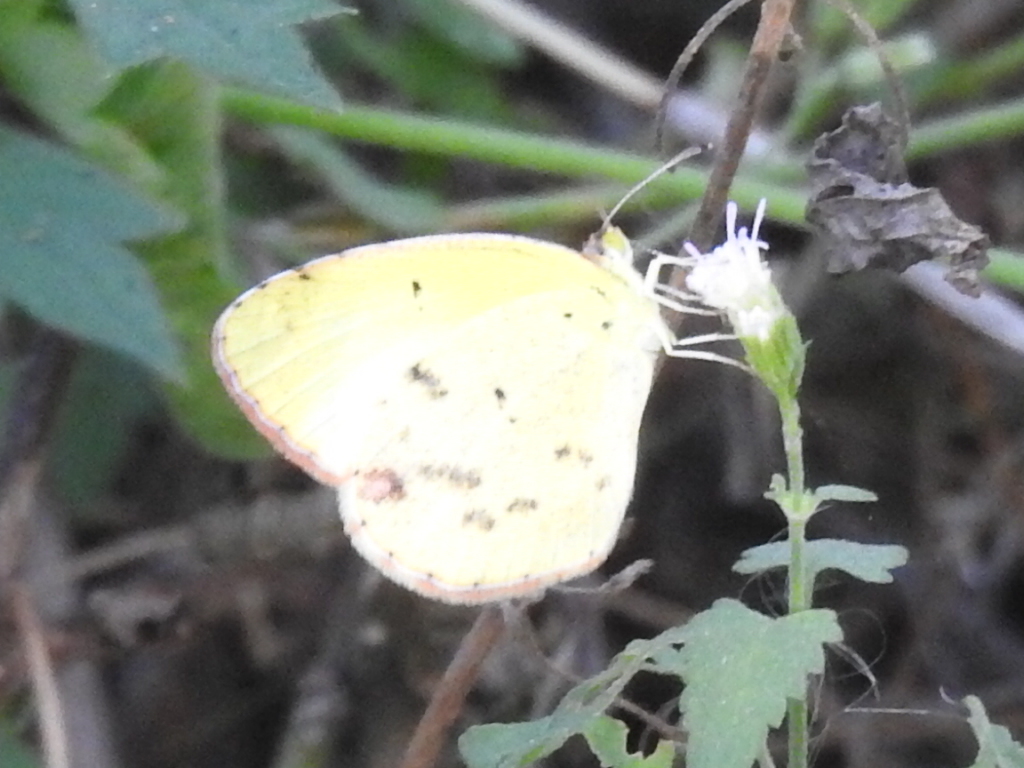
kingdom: Animalia
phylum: Arthropoda
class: Insecta
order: Lepidoptera
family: Pieridae
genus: Pyrisitia
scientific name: Pyrisitia lisa
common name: Little yellow
